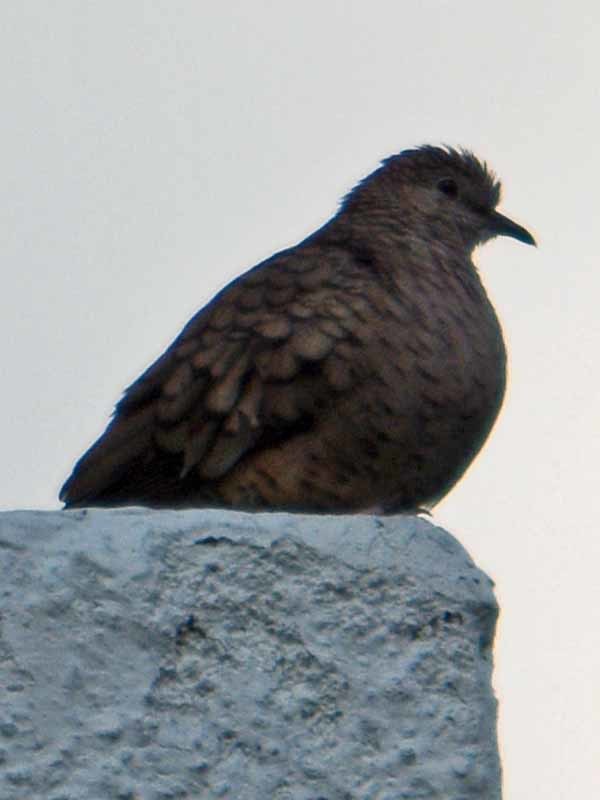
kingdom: Animalia
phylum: Chordata
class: Aves
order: Columbiformes
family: Columbidae
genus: Columbina
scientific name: Columbina inca
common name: Inca dove
